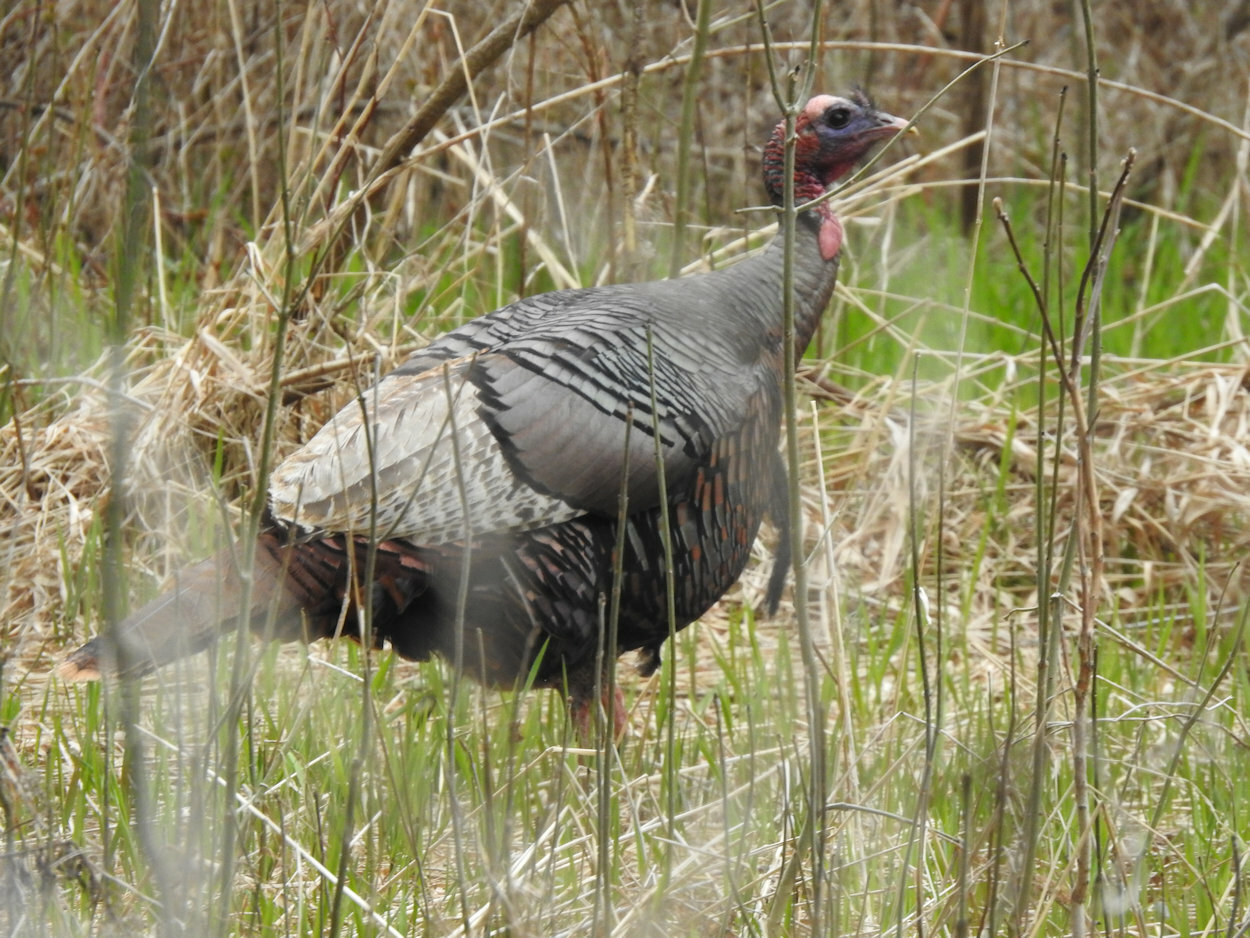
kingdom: Animalia
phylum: Chordata
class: Aves
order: Galliformes
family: Phasianidae
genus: Meleagris
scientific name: Meleagris gallopavo
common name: Wild turkey
